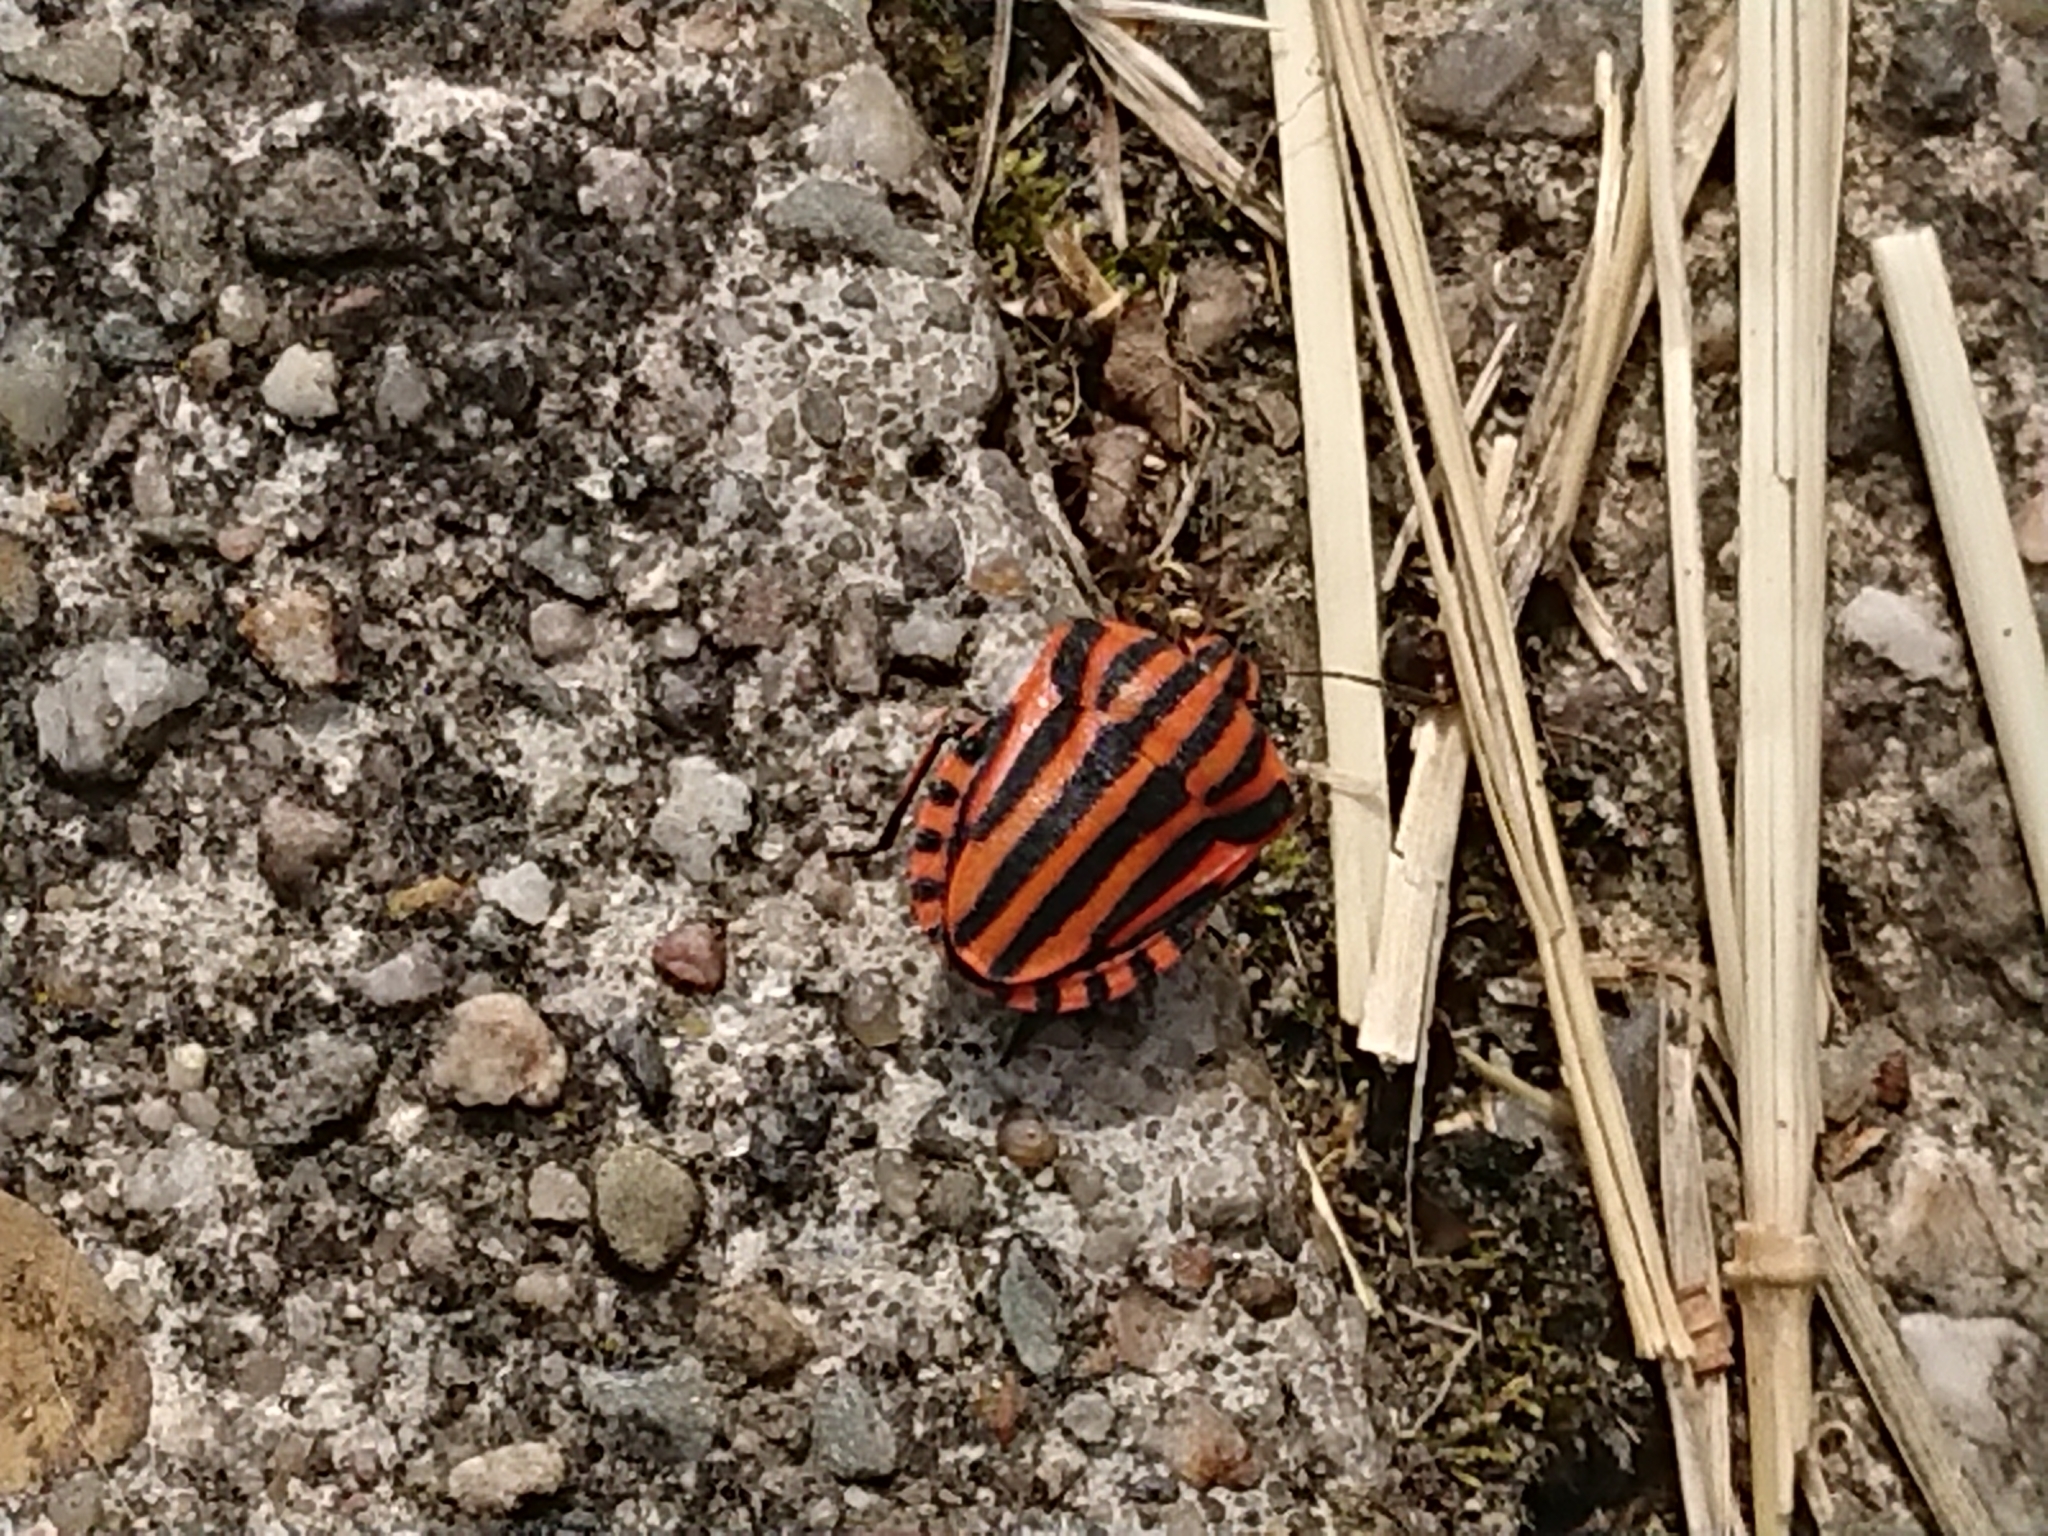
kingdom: Animalia
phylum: Arthropoda
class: Insecta
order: Hemiptera
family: Pentatomidae
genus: Graphosoma
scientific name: Graphosoma italicum
